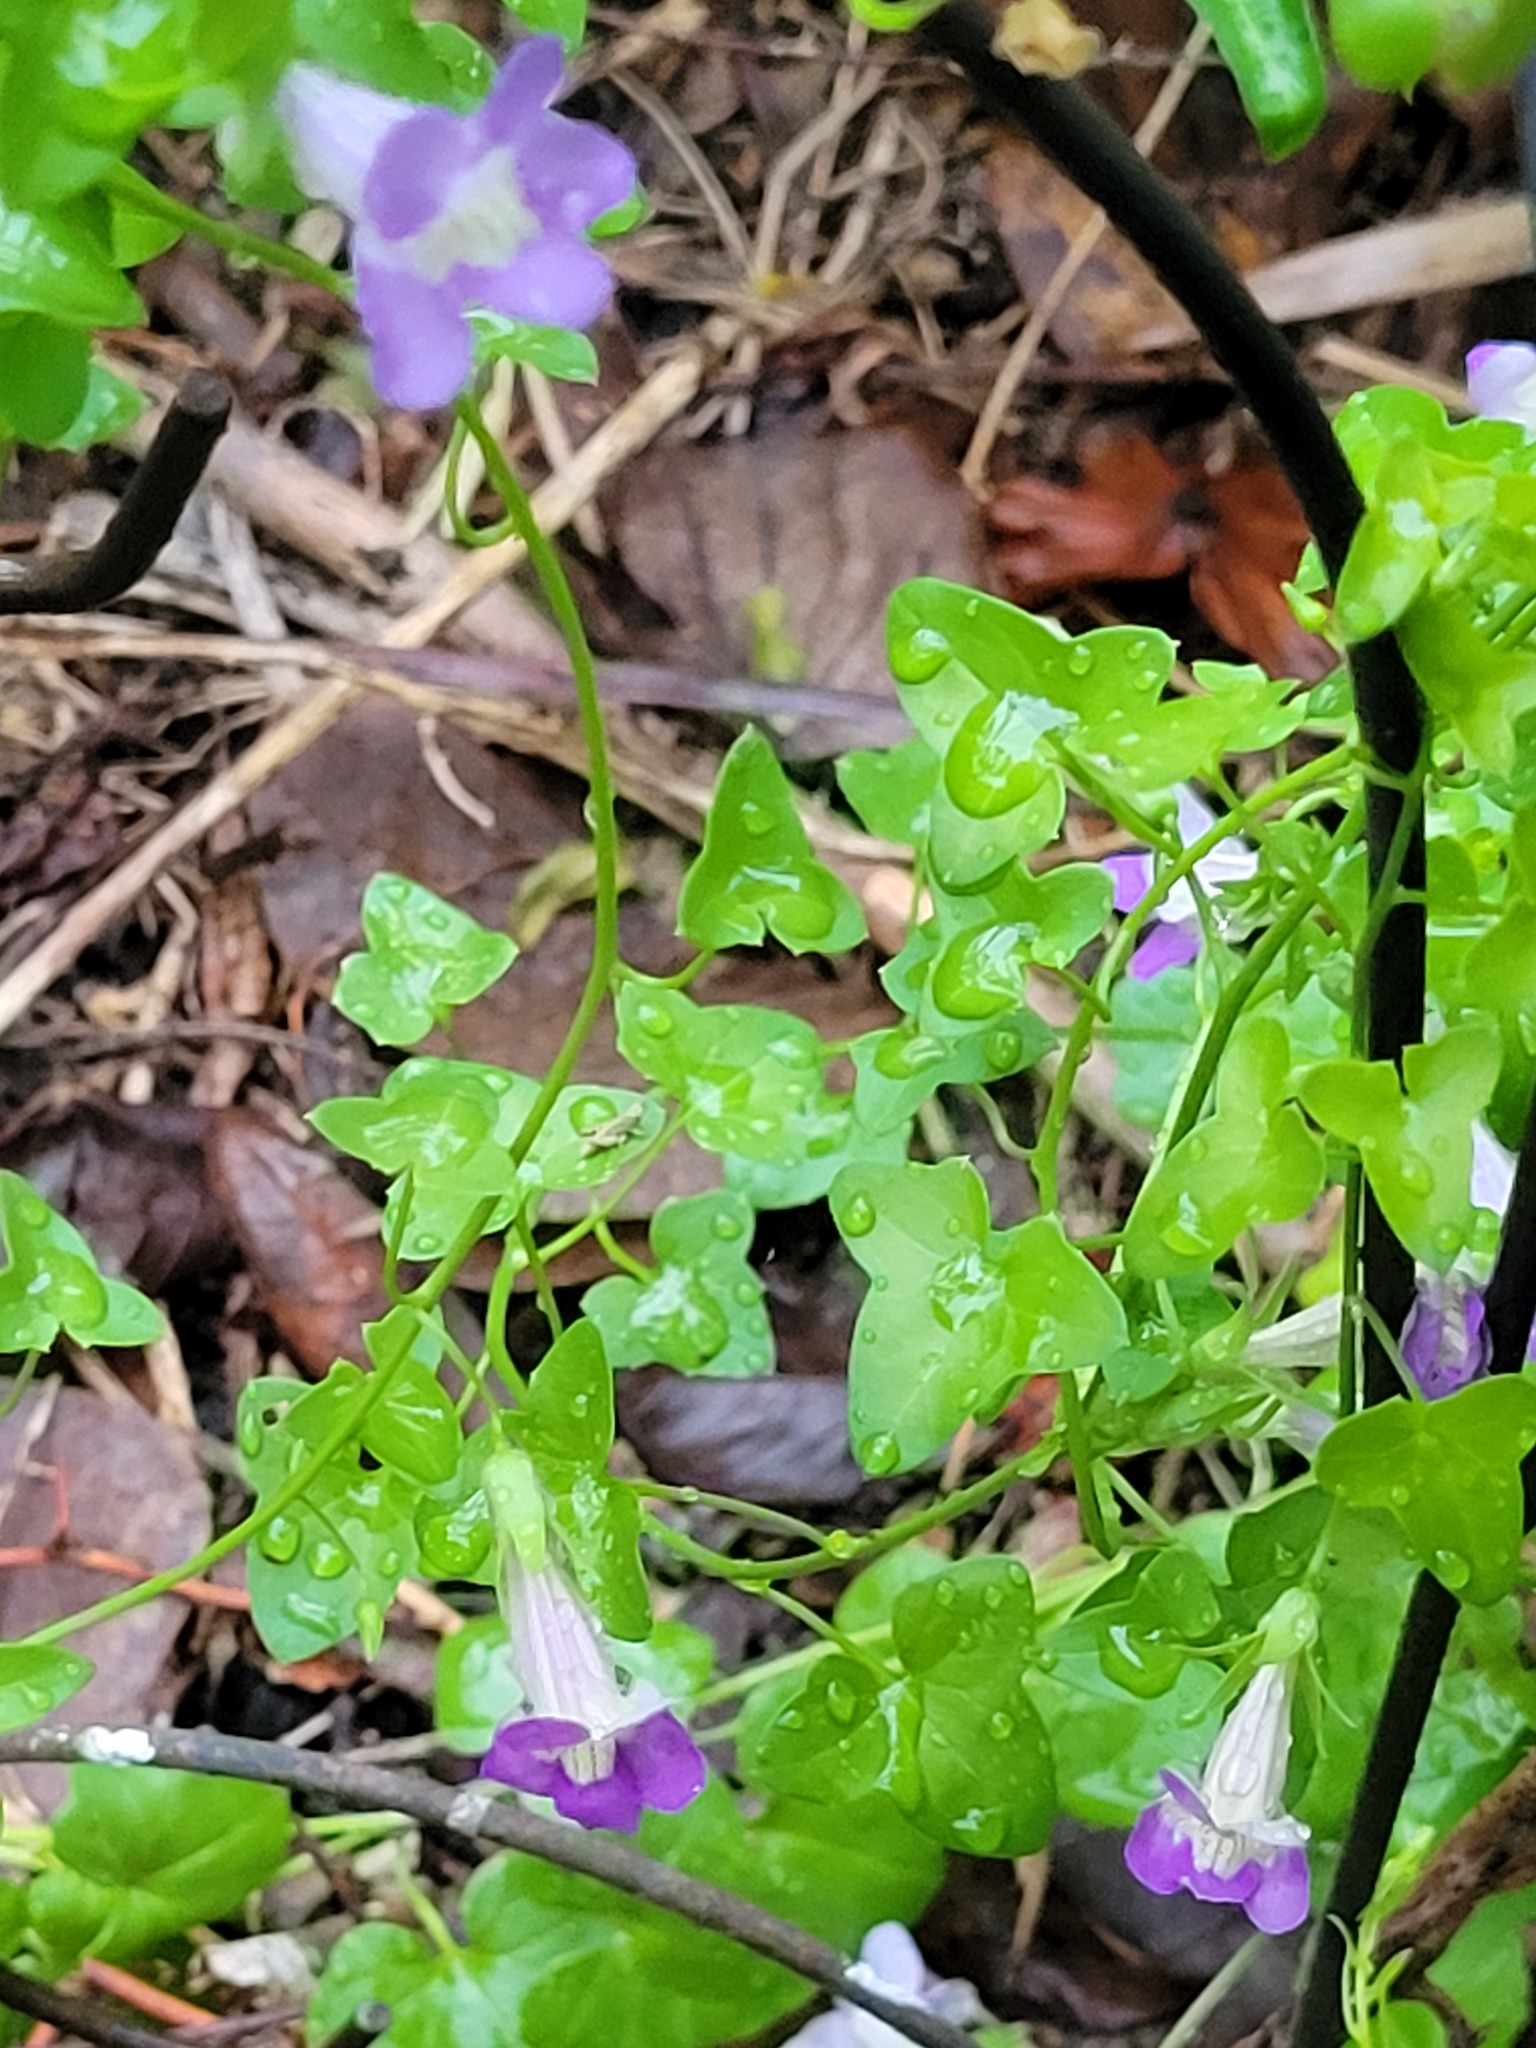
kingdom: Plantae
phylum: Tracheophyta
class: Magnoliopsida
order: Lamiales
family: Plantaginaceae
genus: Maurandella
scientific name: Maurandella antirrhiniflora
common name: Violet twining-snapdragon
